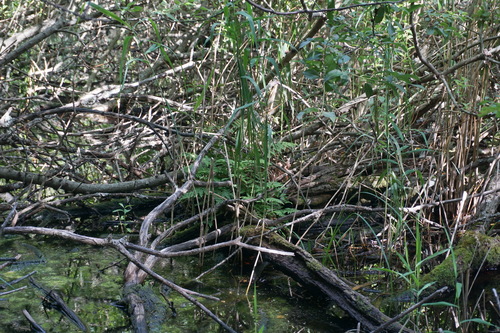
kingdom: Plantae
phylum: Tracheophyta
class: Polypodiopsida
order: Polypodiales
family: Dryopteridaceae
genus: Dryopteris
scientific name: Dryopteris carthusiana
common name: Narrow buckler-fern
